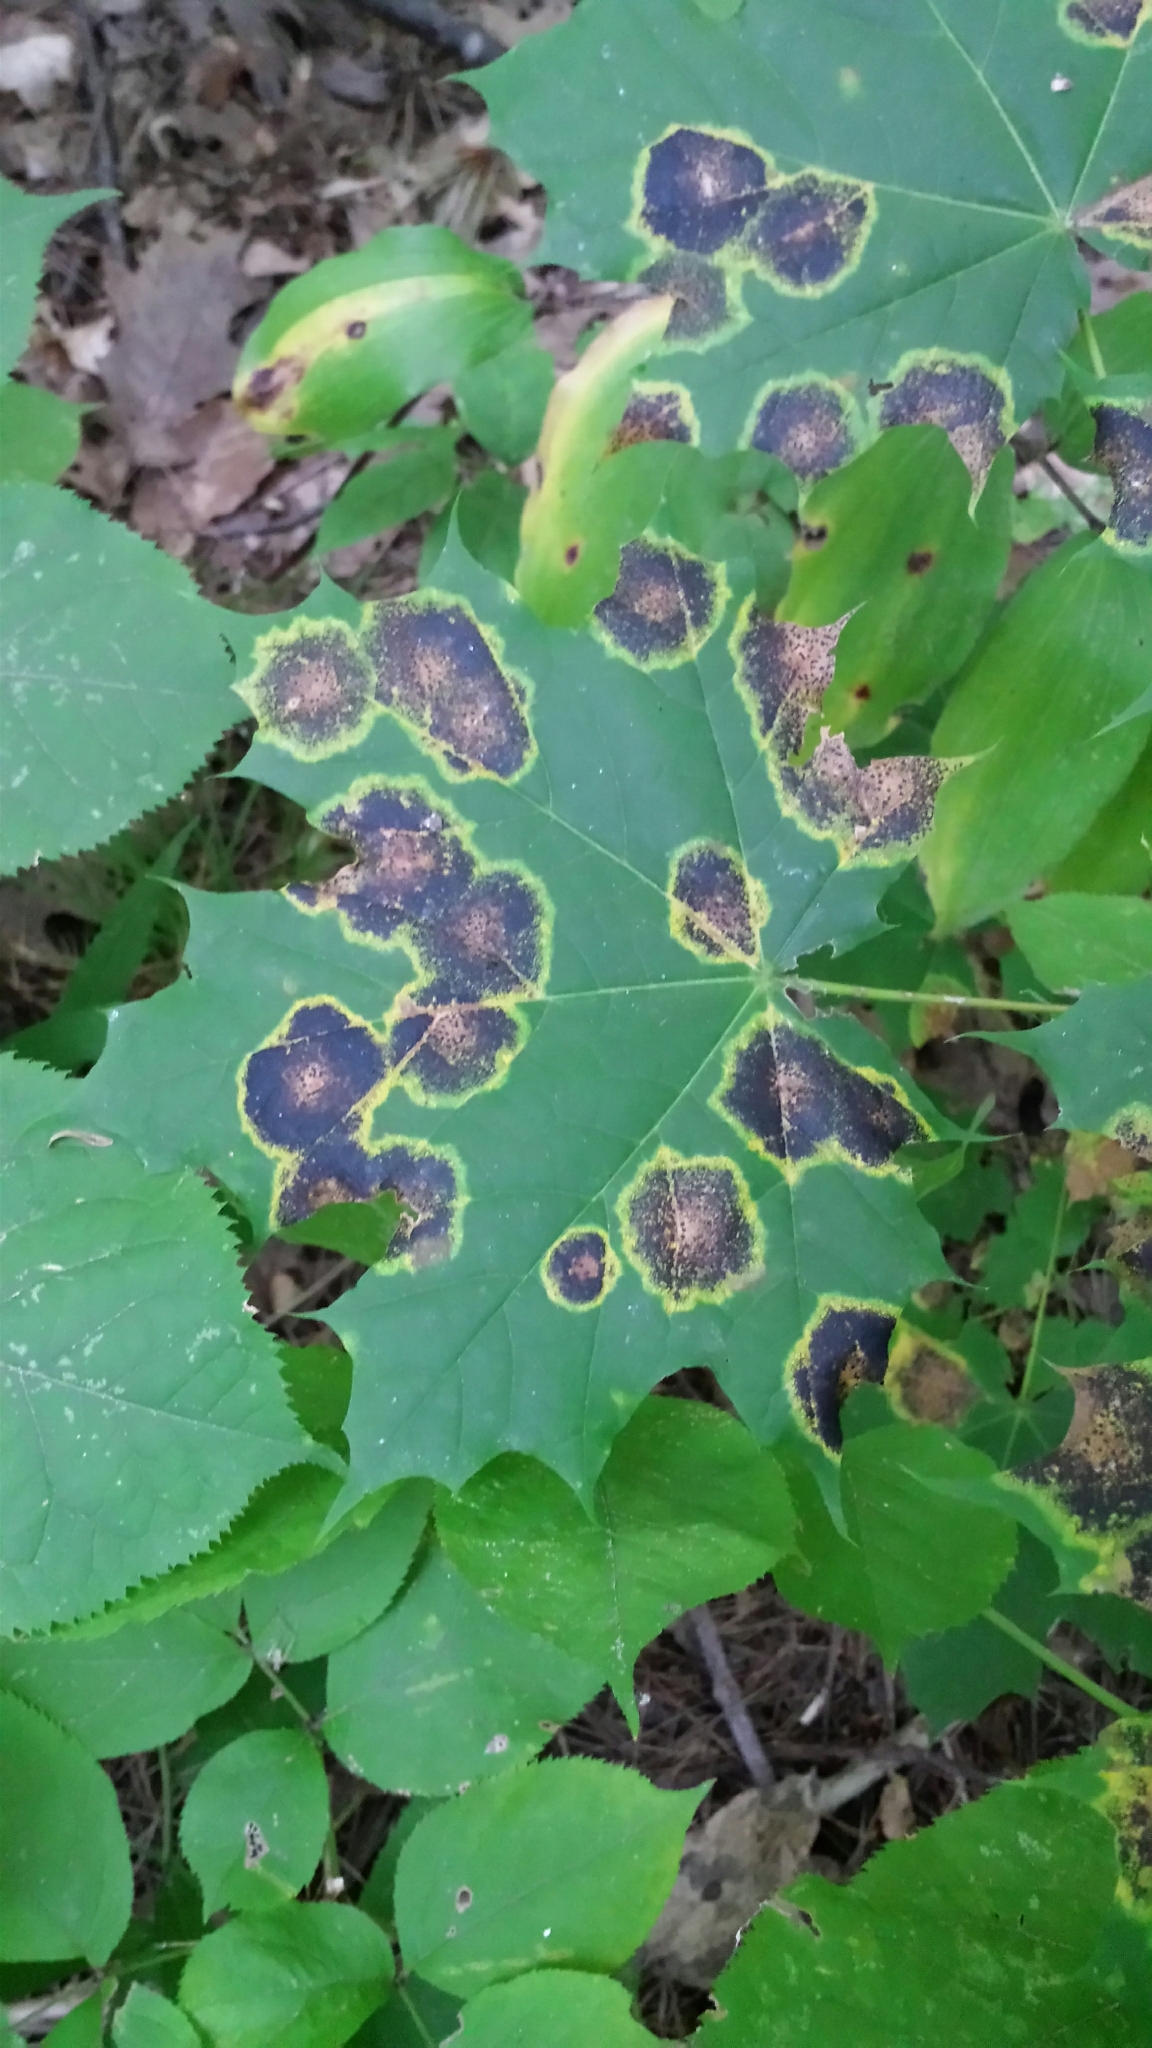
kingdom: Plantae
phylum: Tracheophyta
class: Magnoliopsida
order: Sapindales
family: Sapindaceae
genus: Acer
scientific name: Acer platanoides
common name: Norway maple
